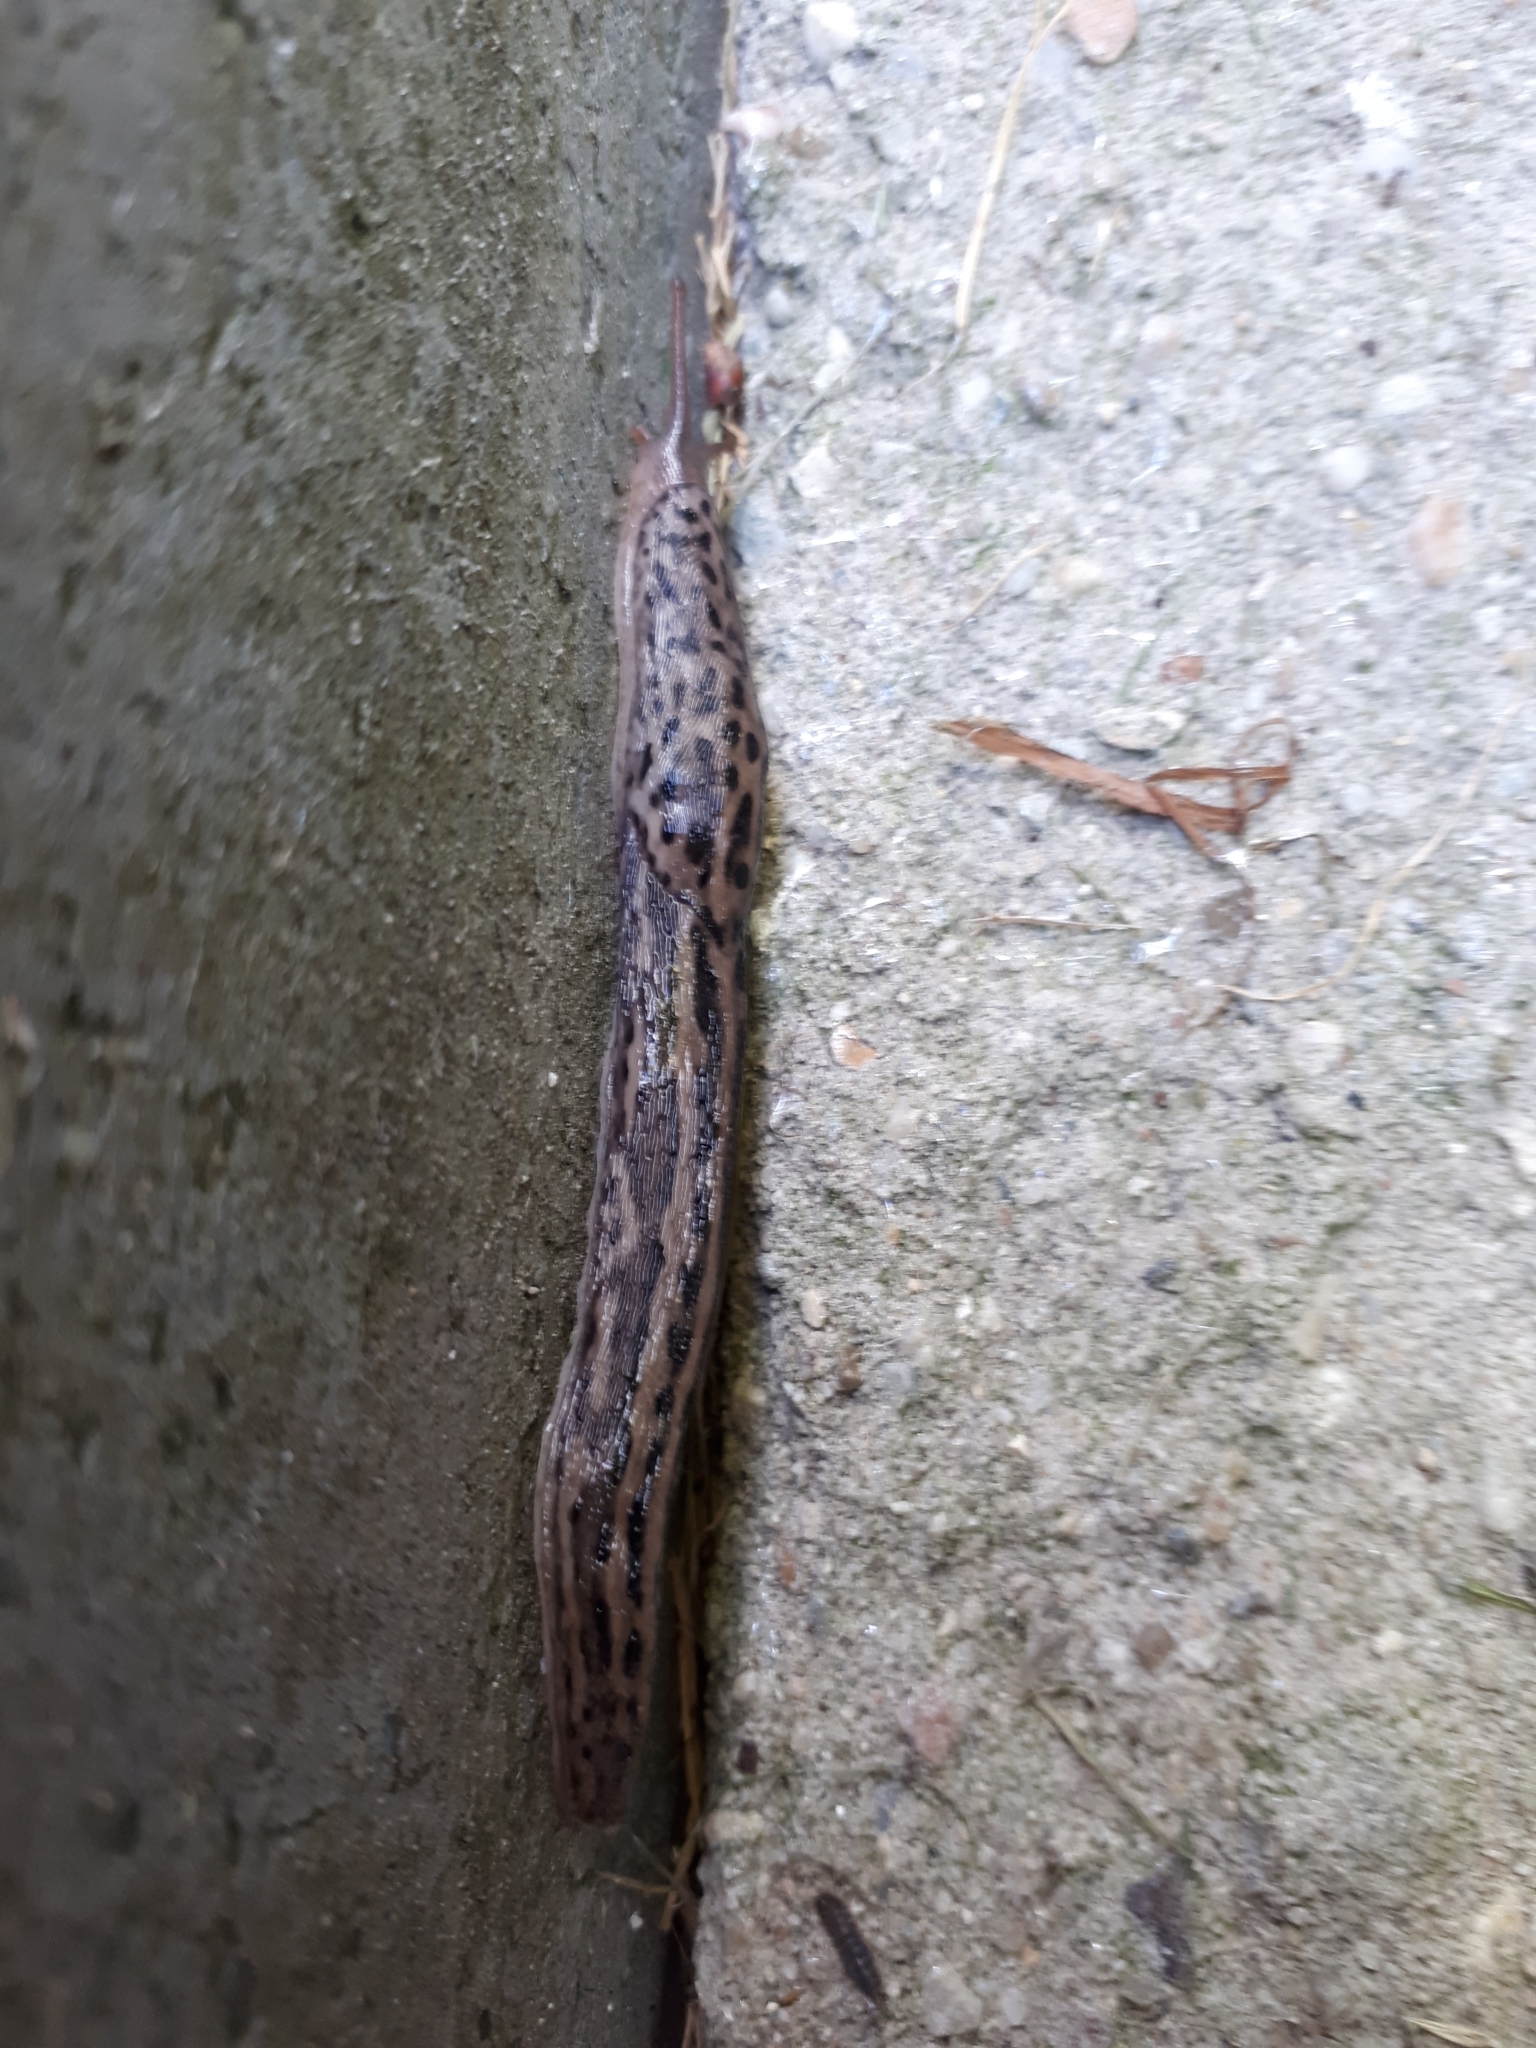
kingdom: Animalia
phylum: Mollusca
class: Gastropoda
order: Stylommatophora
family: Limacidae
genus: Limax
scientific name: Limax maximus
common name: Great grey slug
